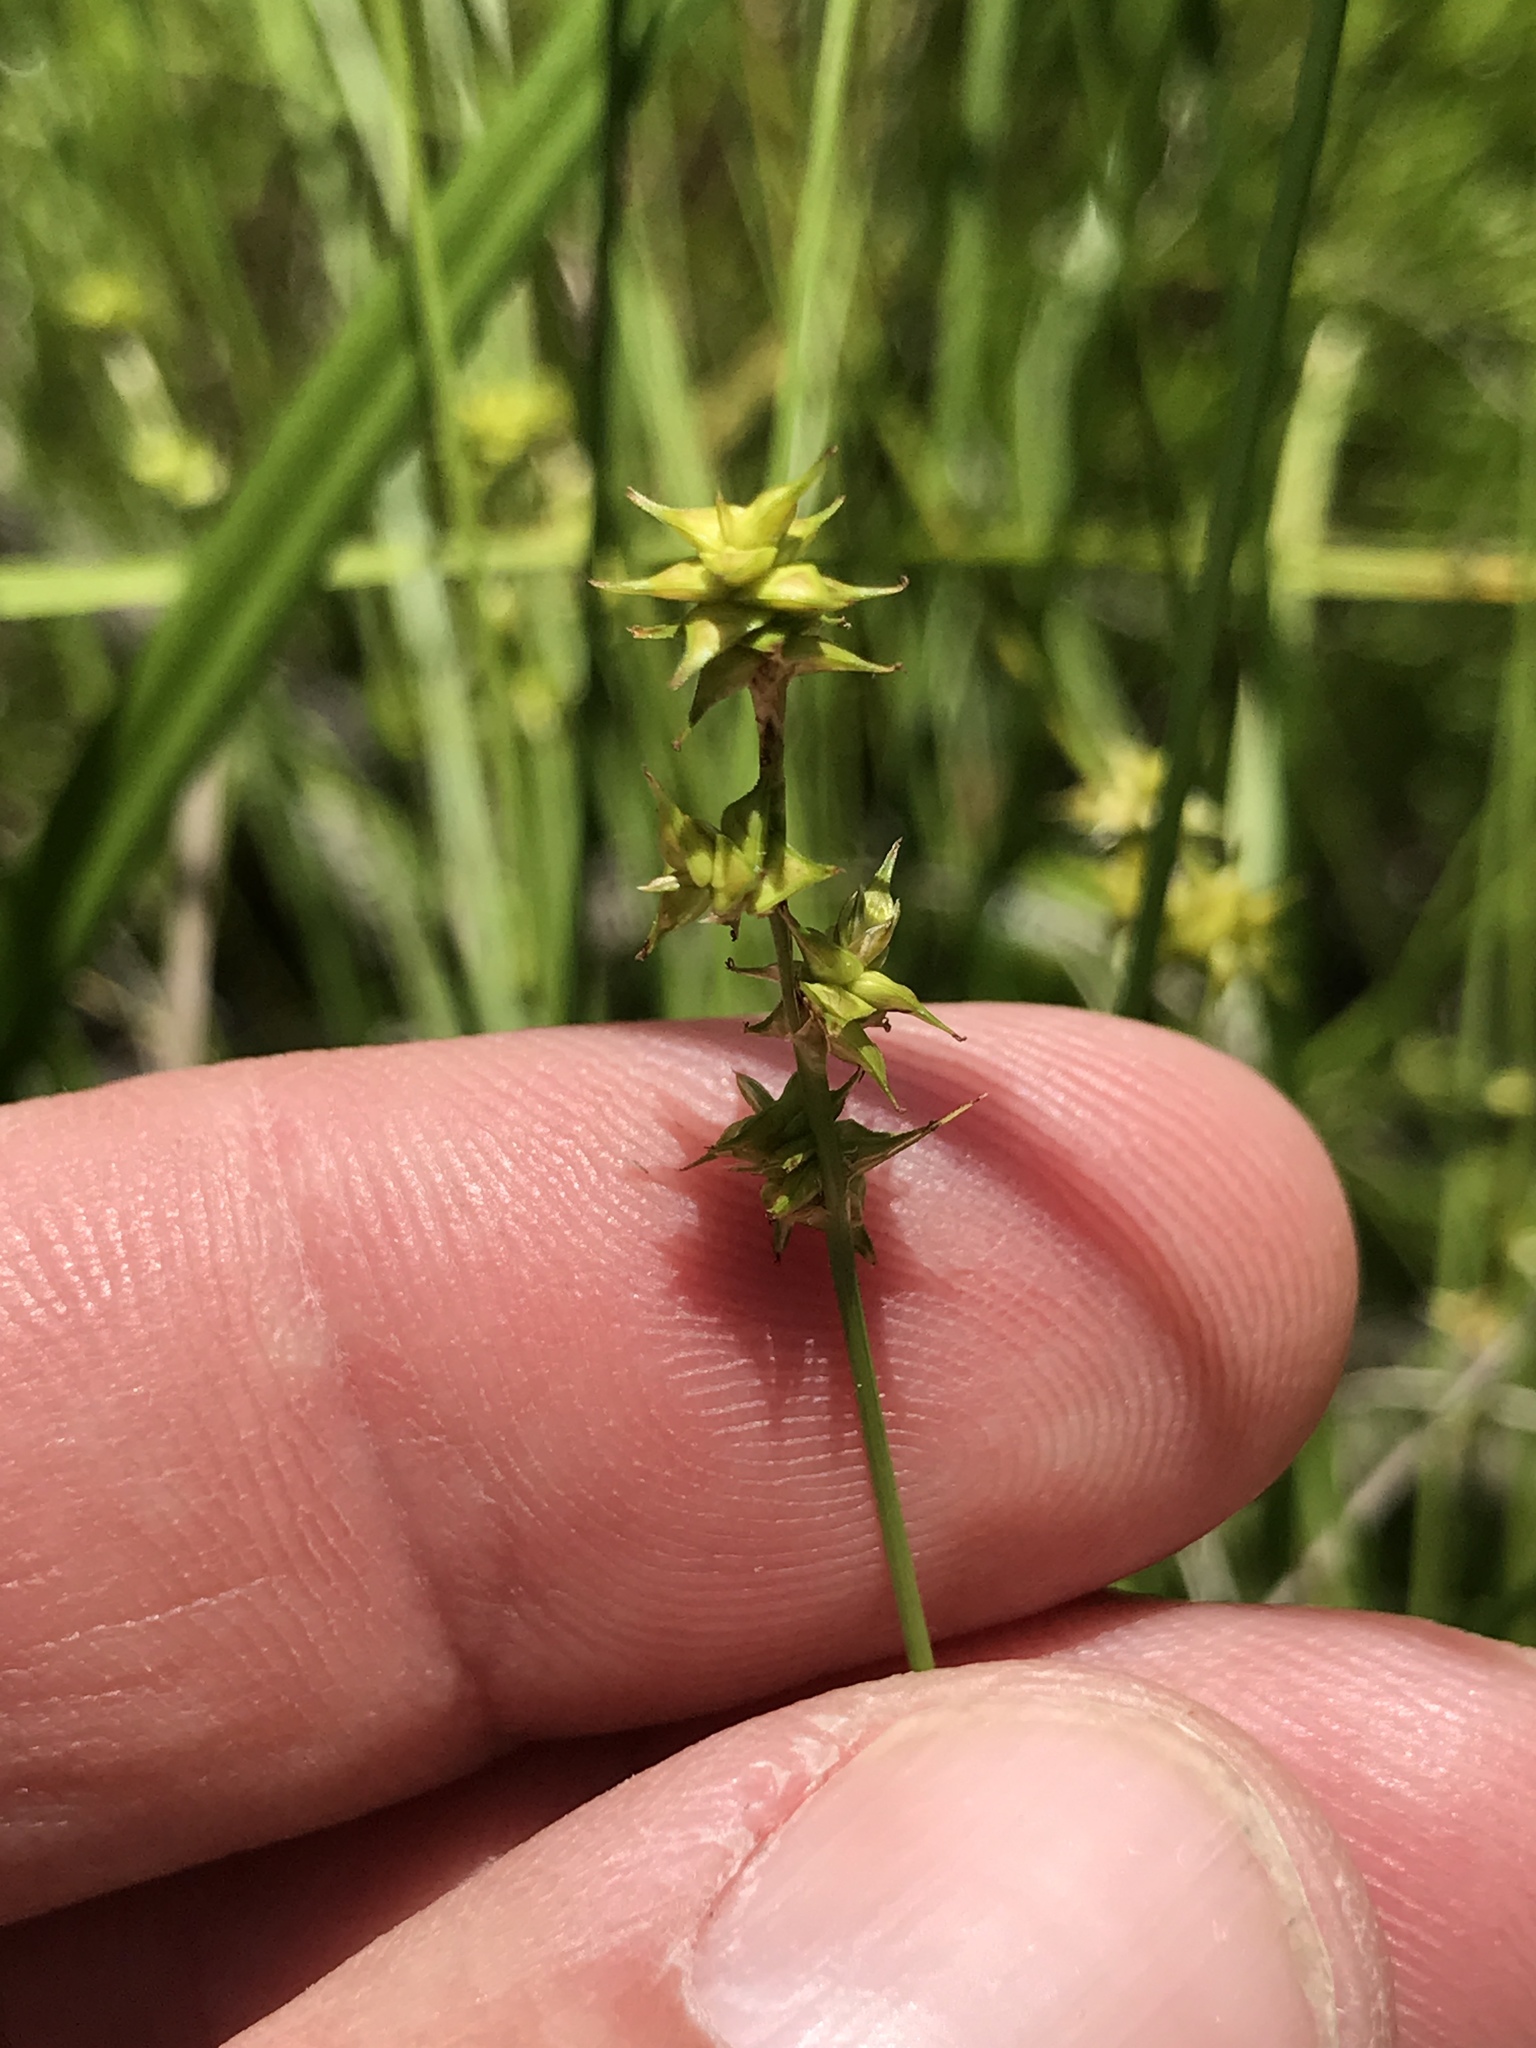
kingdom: Plantae
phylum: Tracheophyta
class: Liliopsida
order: Poales
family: Cyperaceae
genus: Carex
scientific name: Carex interior
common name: Inland sedge
